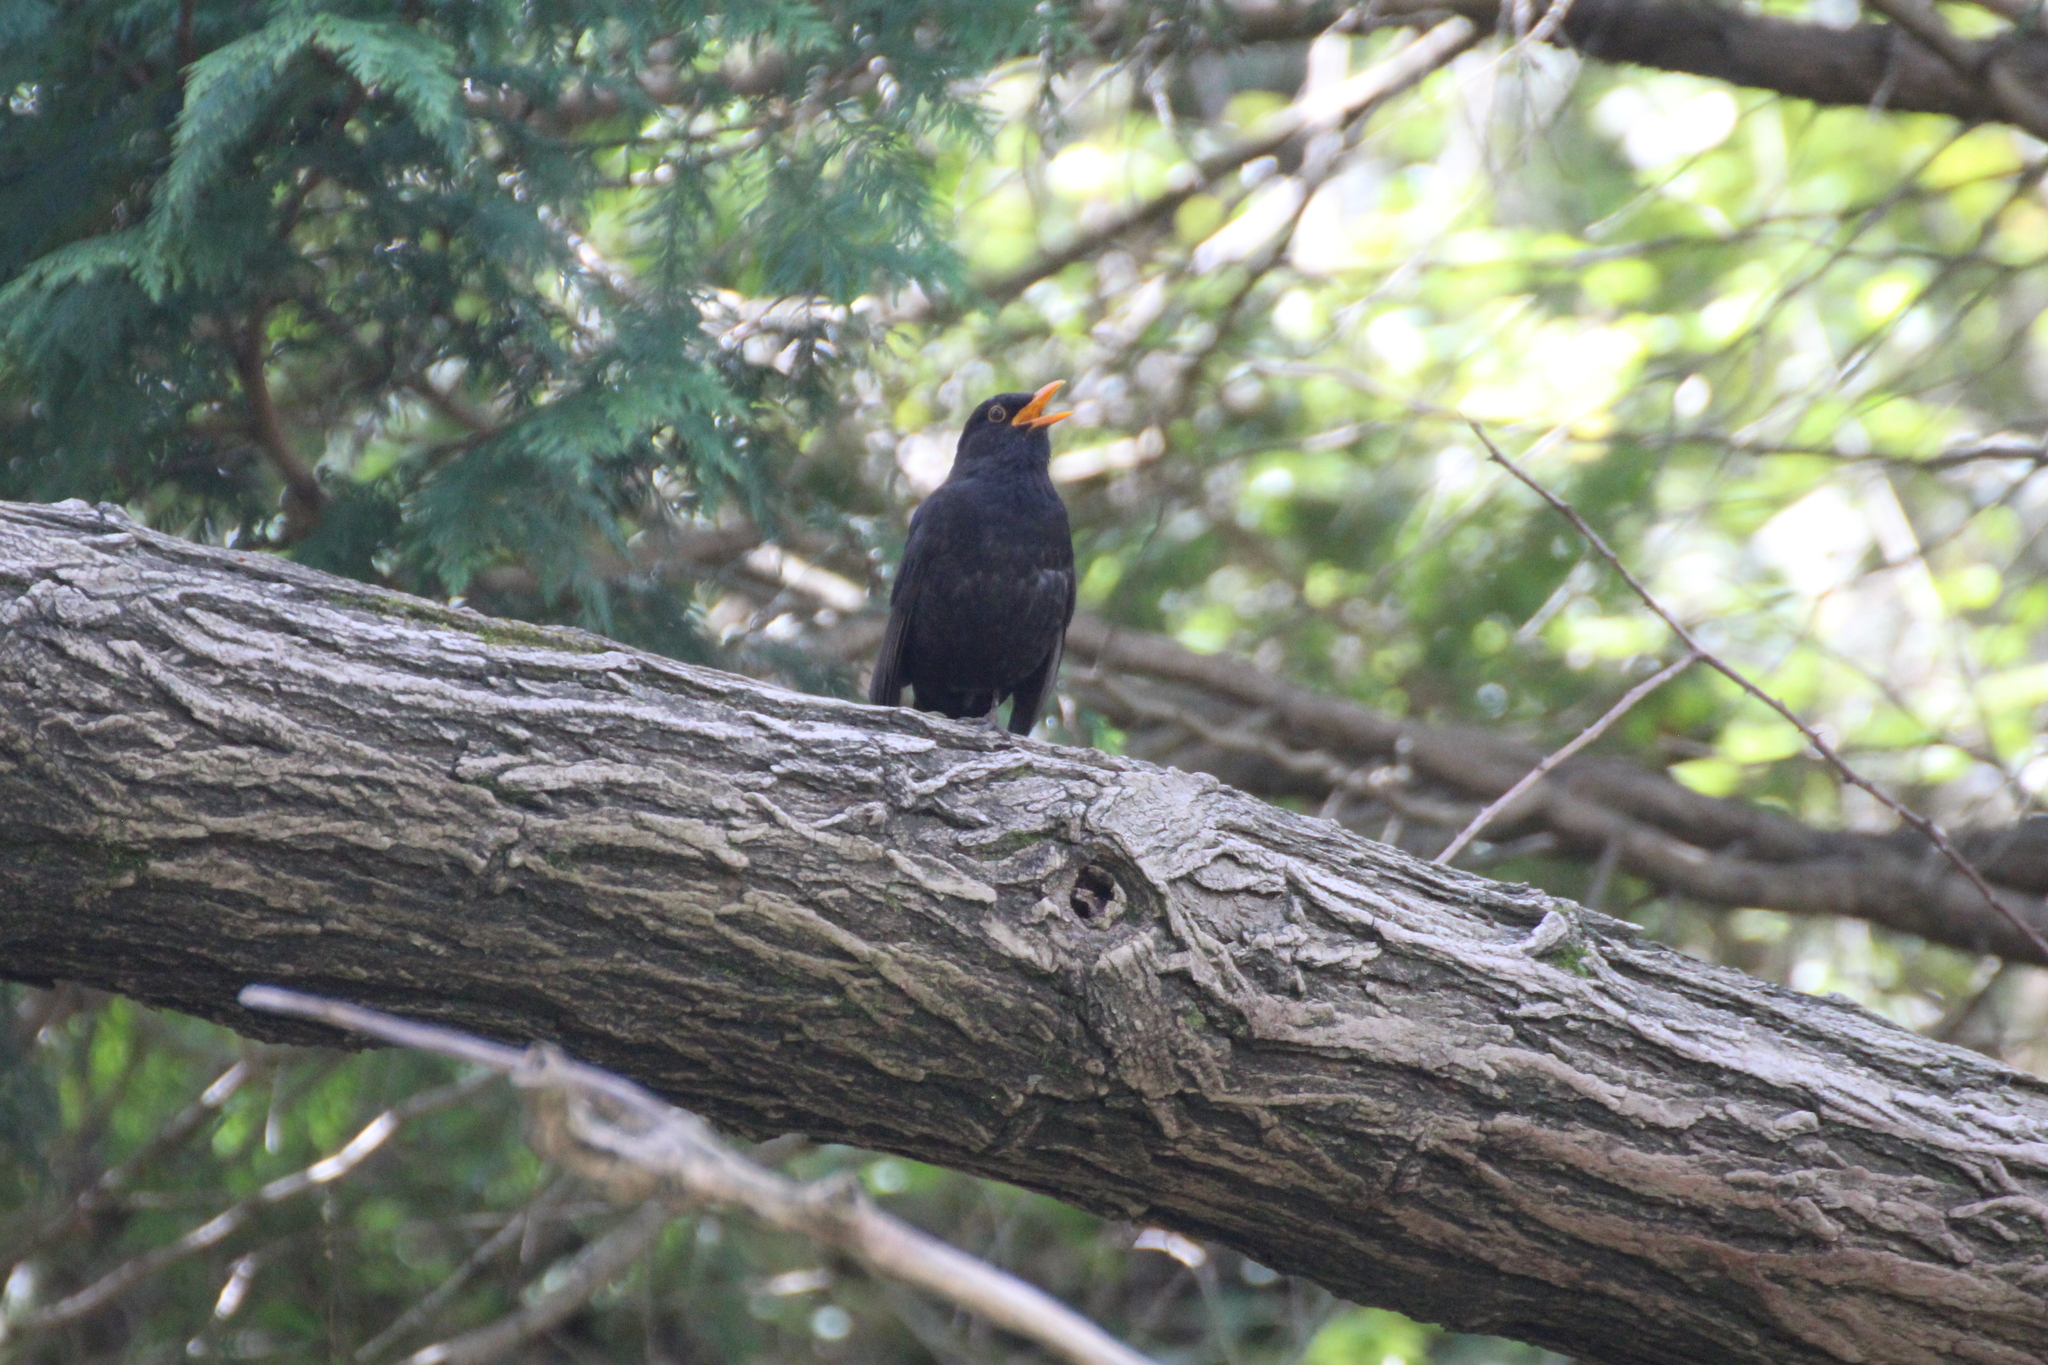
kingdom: Animalia
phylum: Chordata
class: Aves
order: Passeriformes
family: Turdidae
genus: Turdus
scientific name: Turdus merula
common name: Common blackbird
